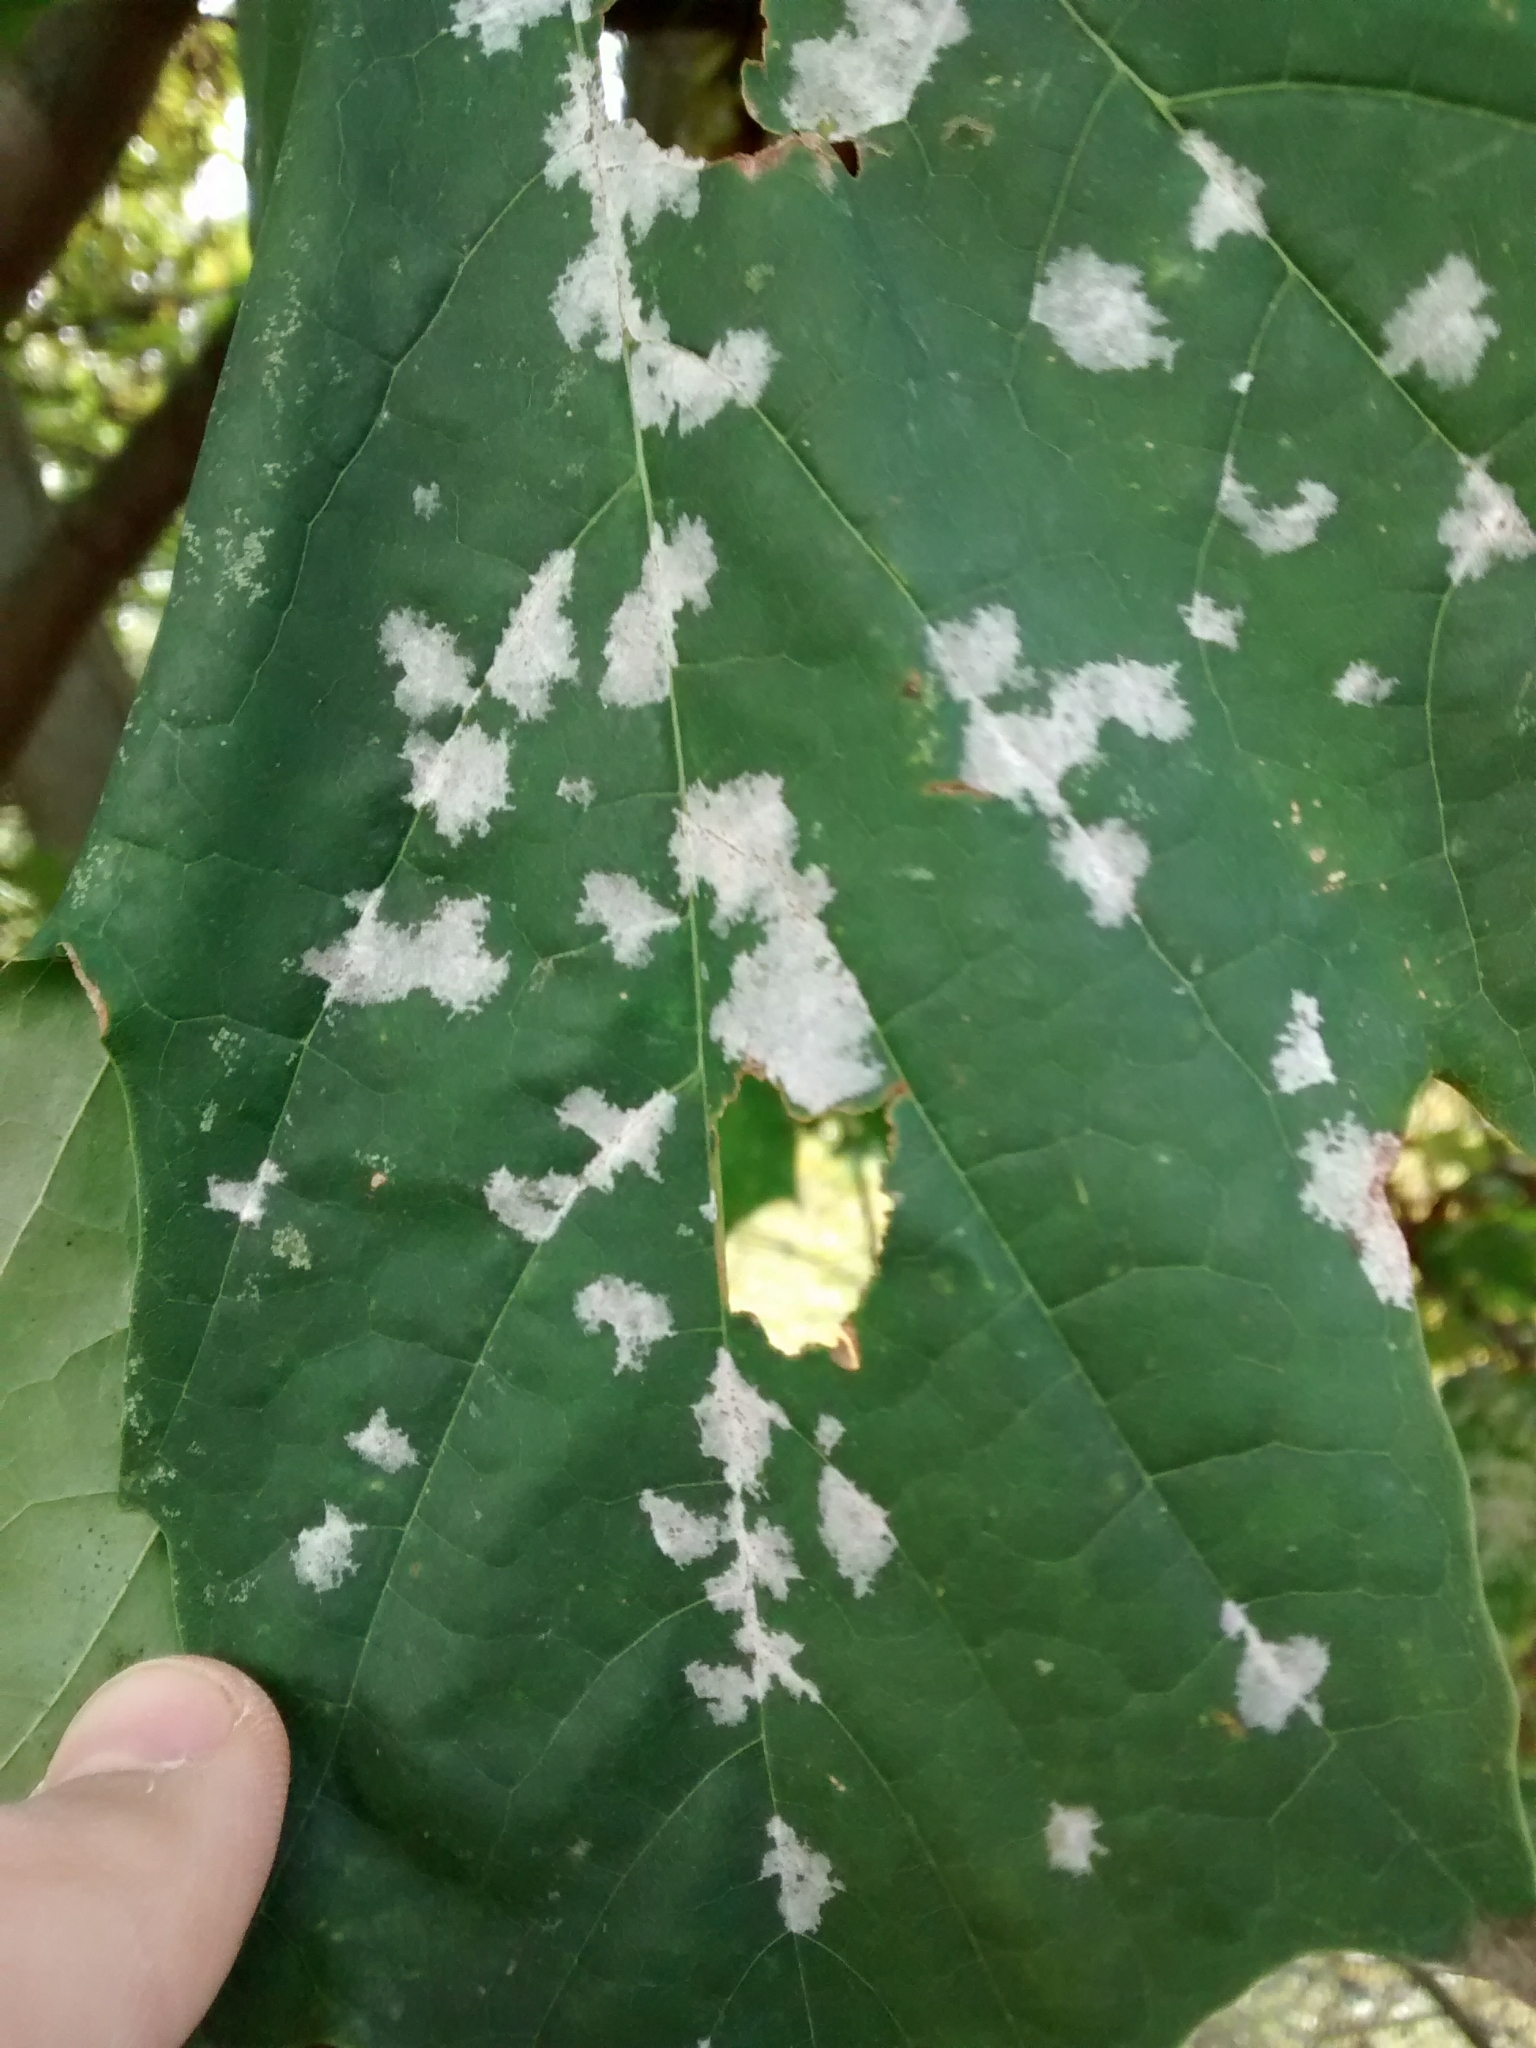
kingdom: Fungi
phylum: Ascomycota
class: Leotiomycetes
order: Helotiales
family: Erysiphaceae
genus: Sawadaea
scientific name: Sawadaea tulasnei
